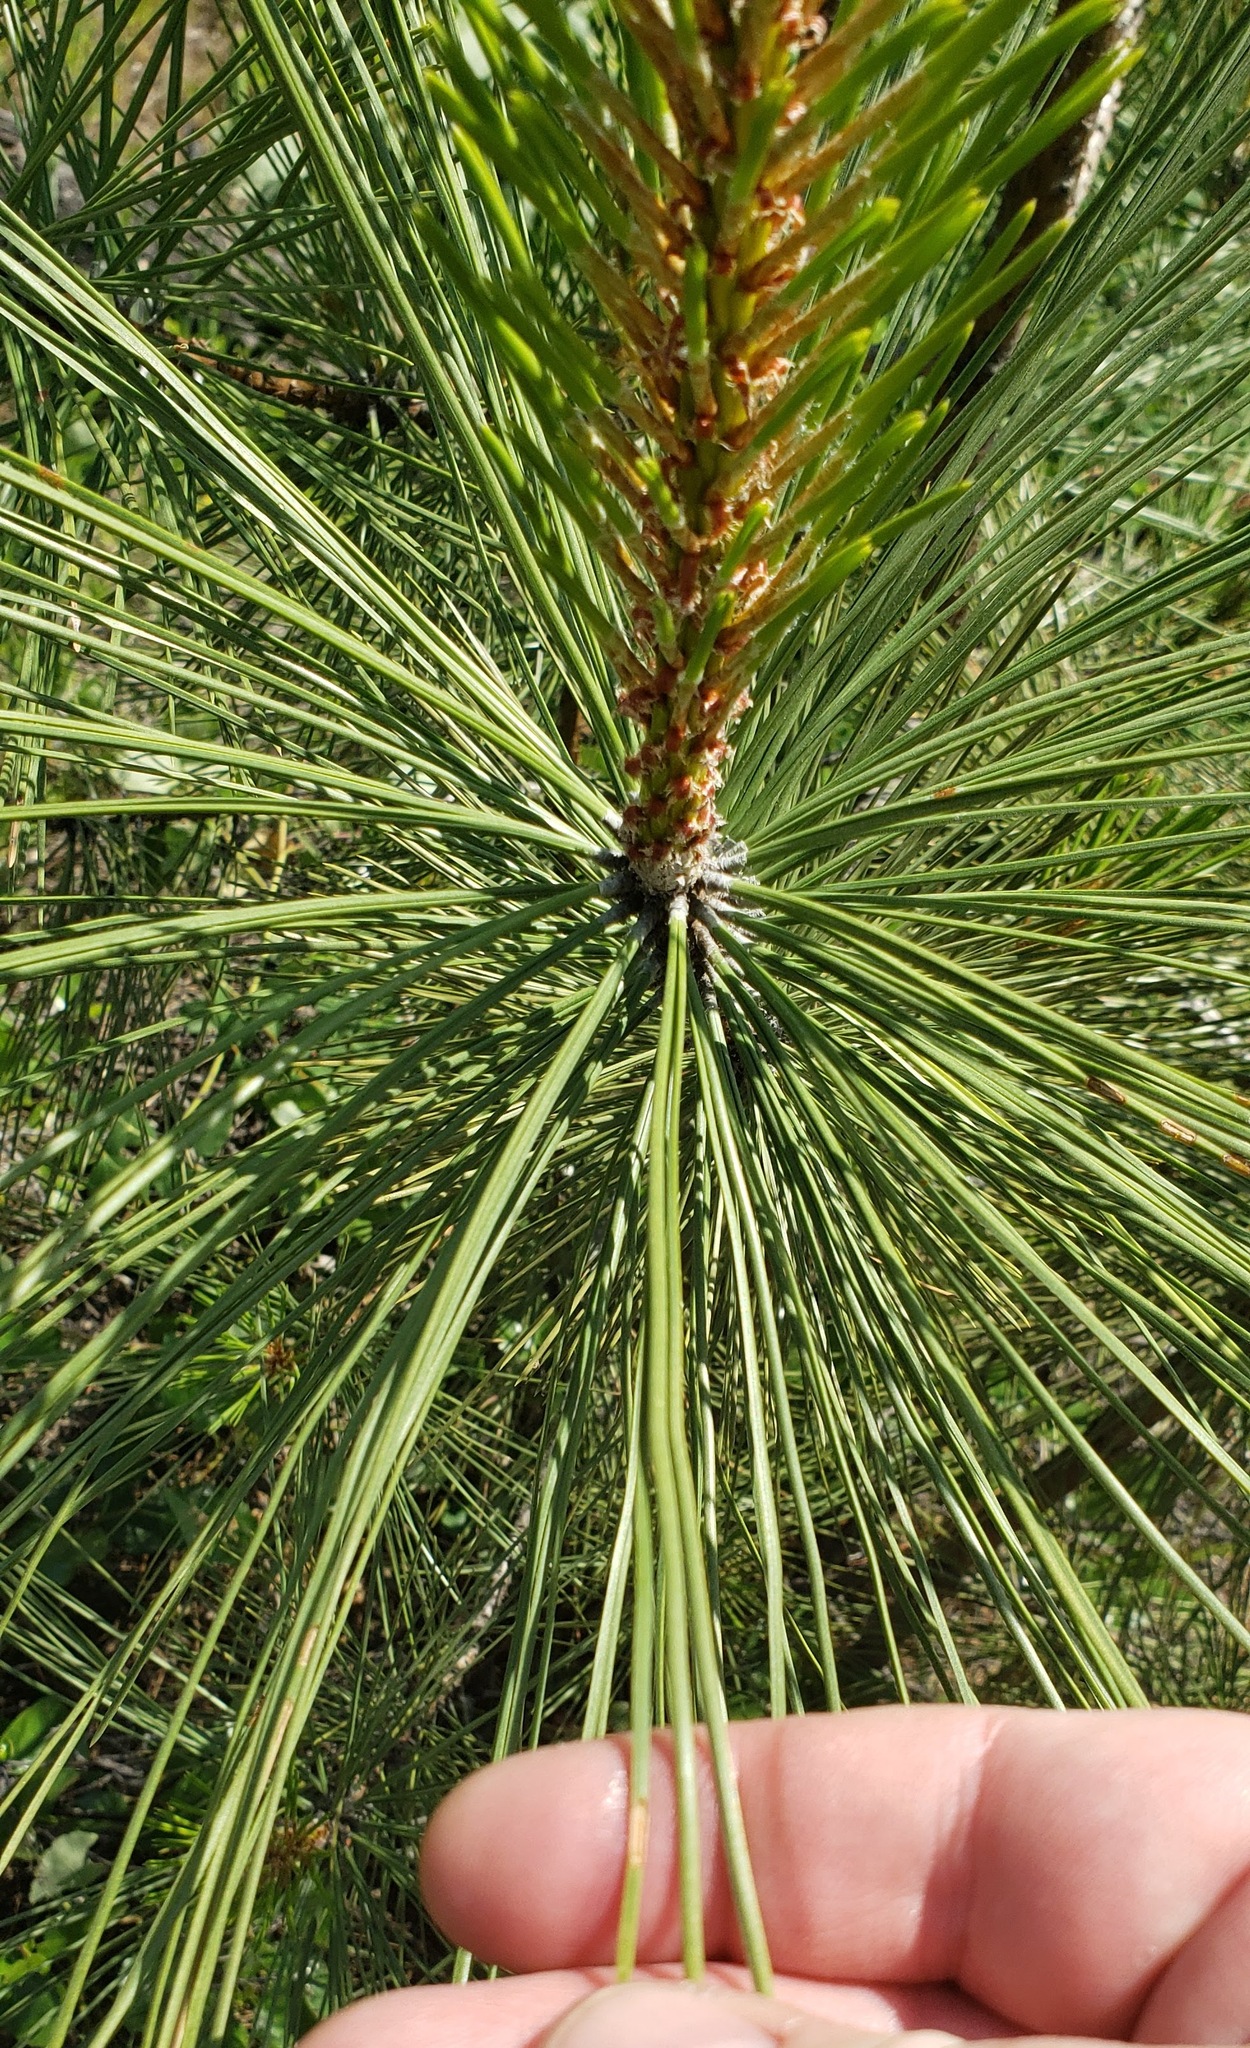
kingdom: Plantae
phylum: Tracheophyta
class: Pinopsida
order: Pinales
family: Pinaceae
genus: Pinus
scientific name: Pinus ponderosa
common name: Western yellow-pine
